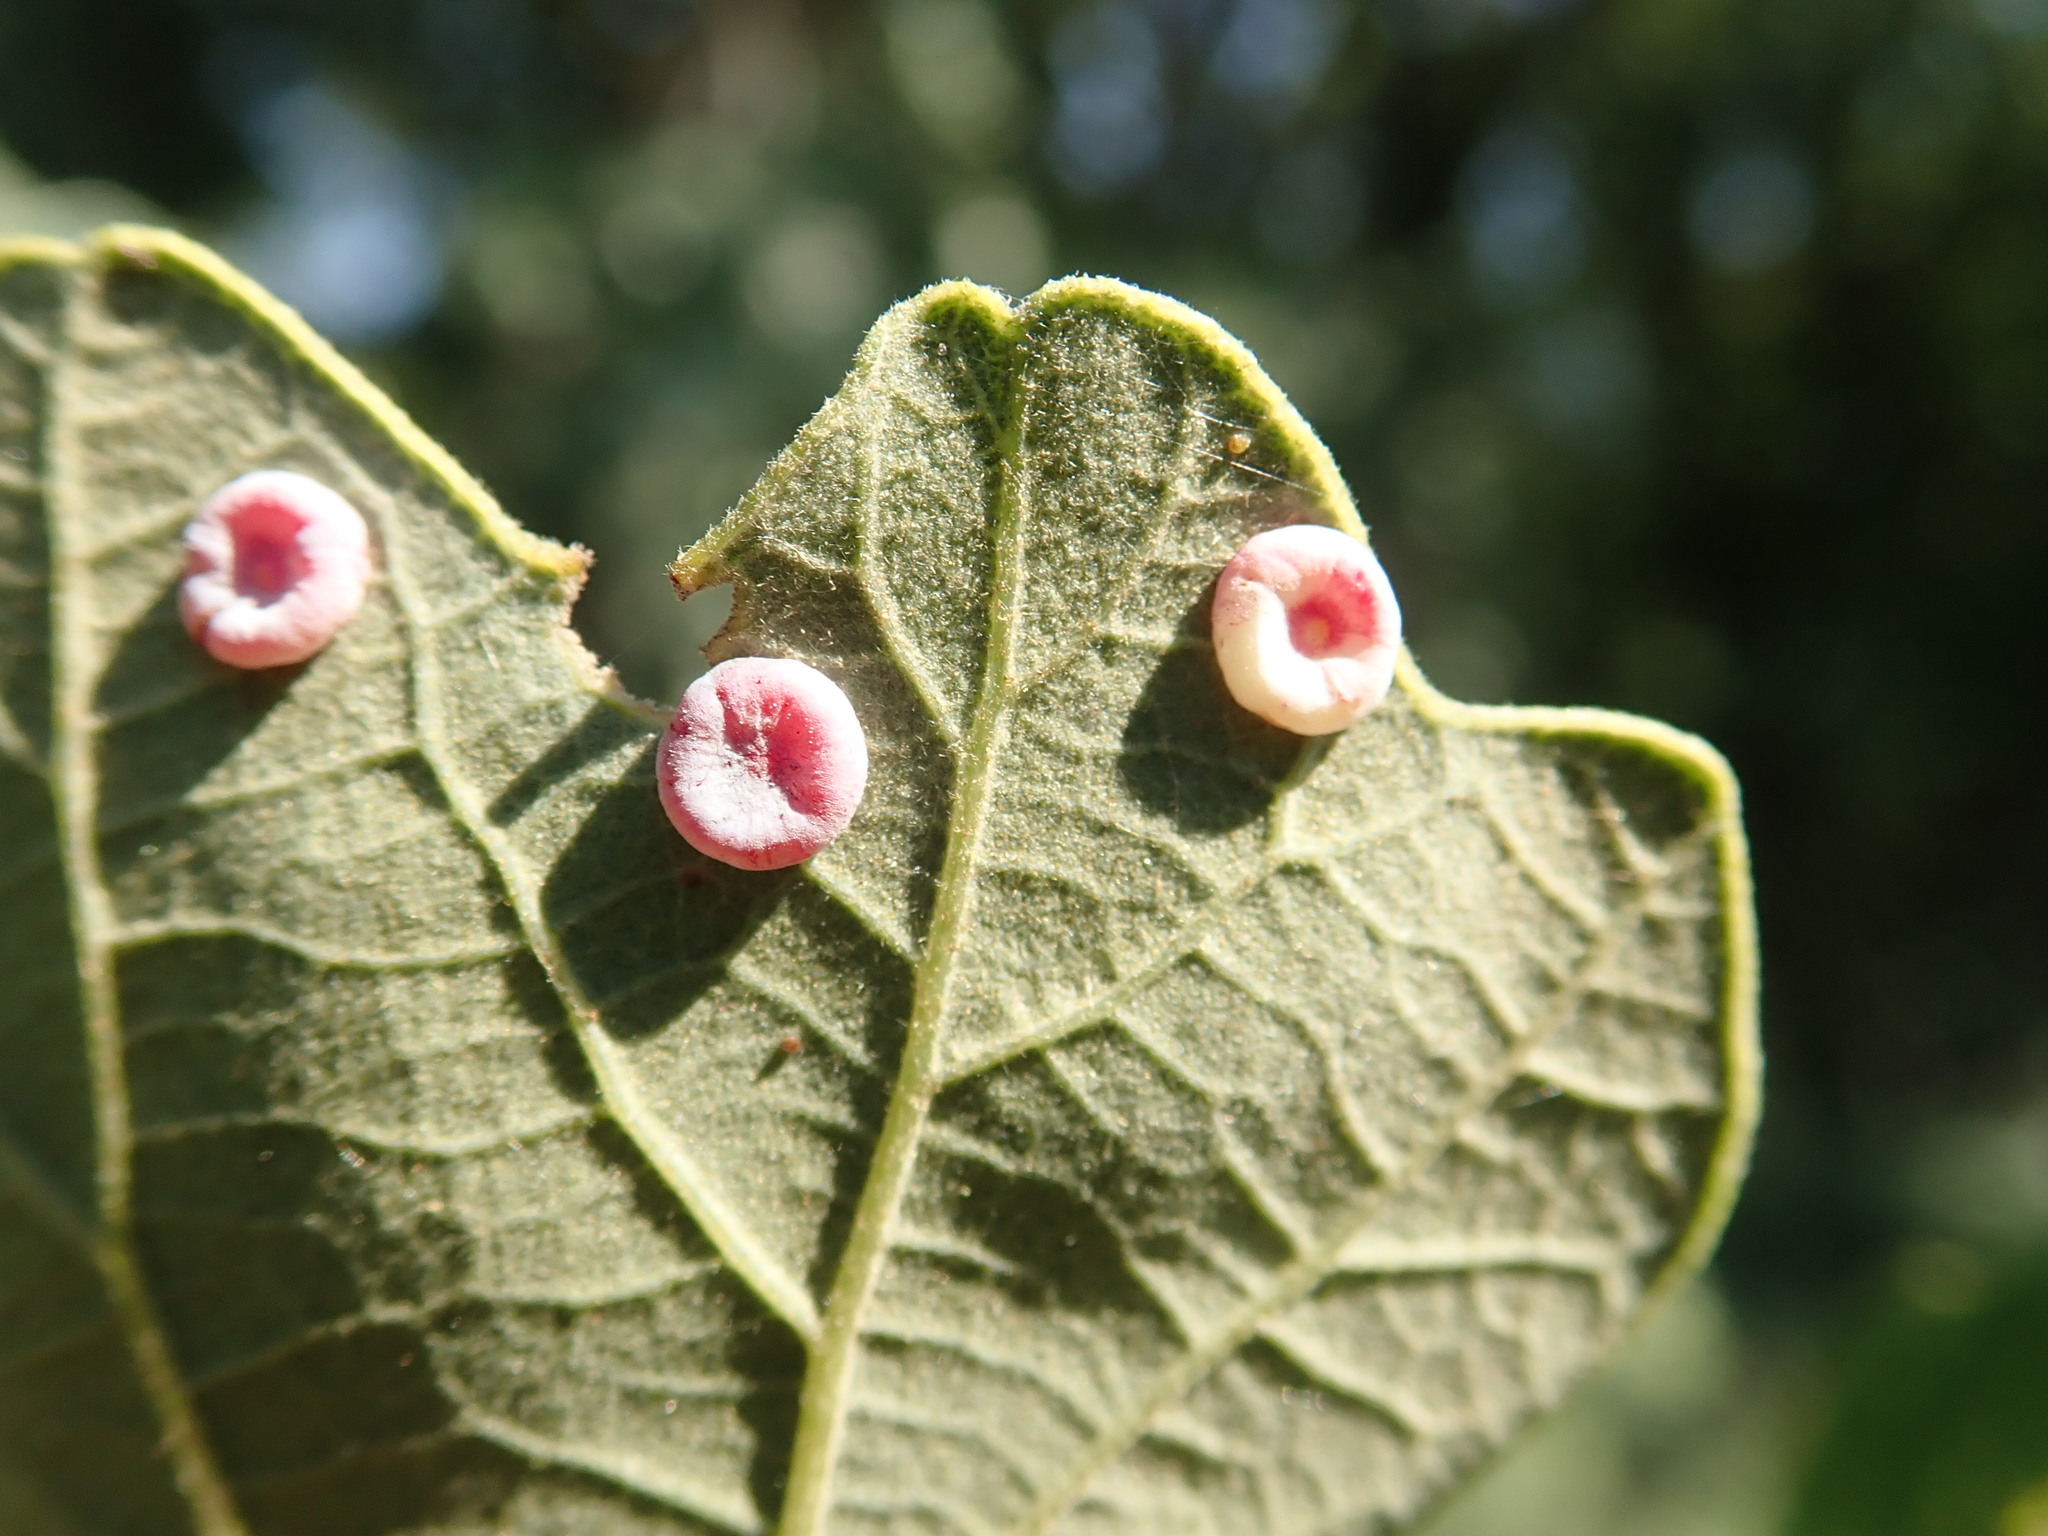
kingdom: Animalia
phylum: Arthropoda
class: Insecta
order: Hymenoptera
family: Cynipidae
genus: Phylloteras
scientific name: Phylloteras poculum
